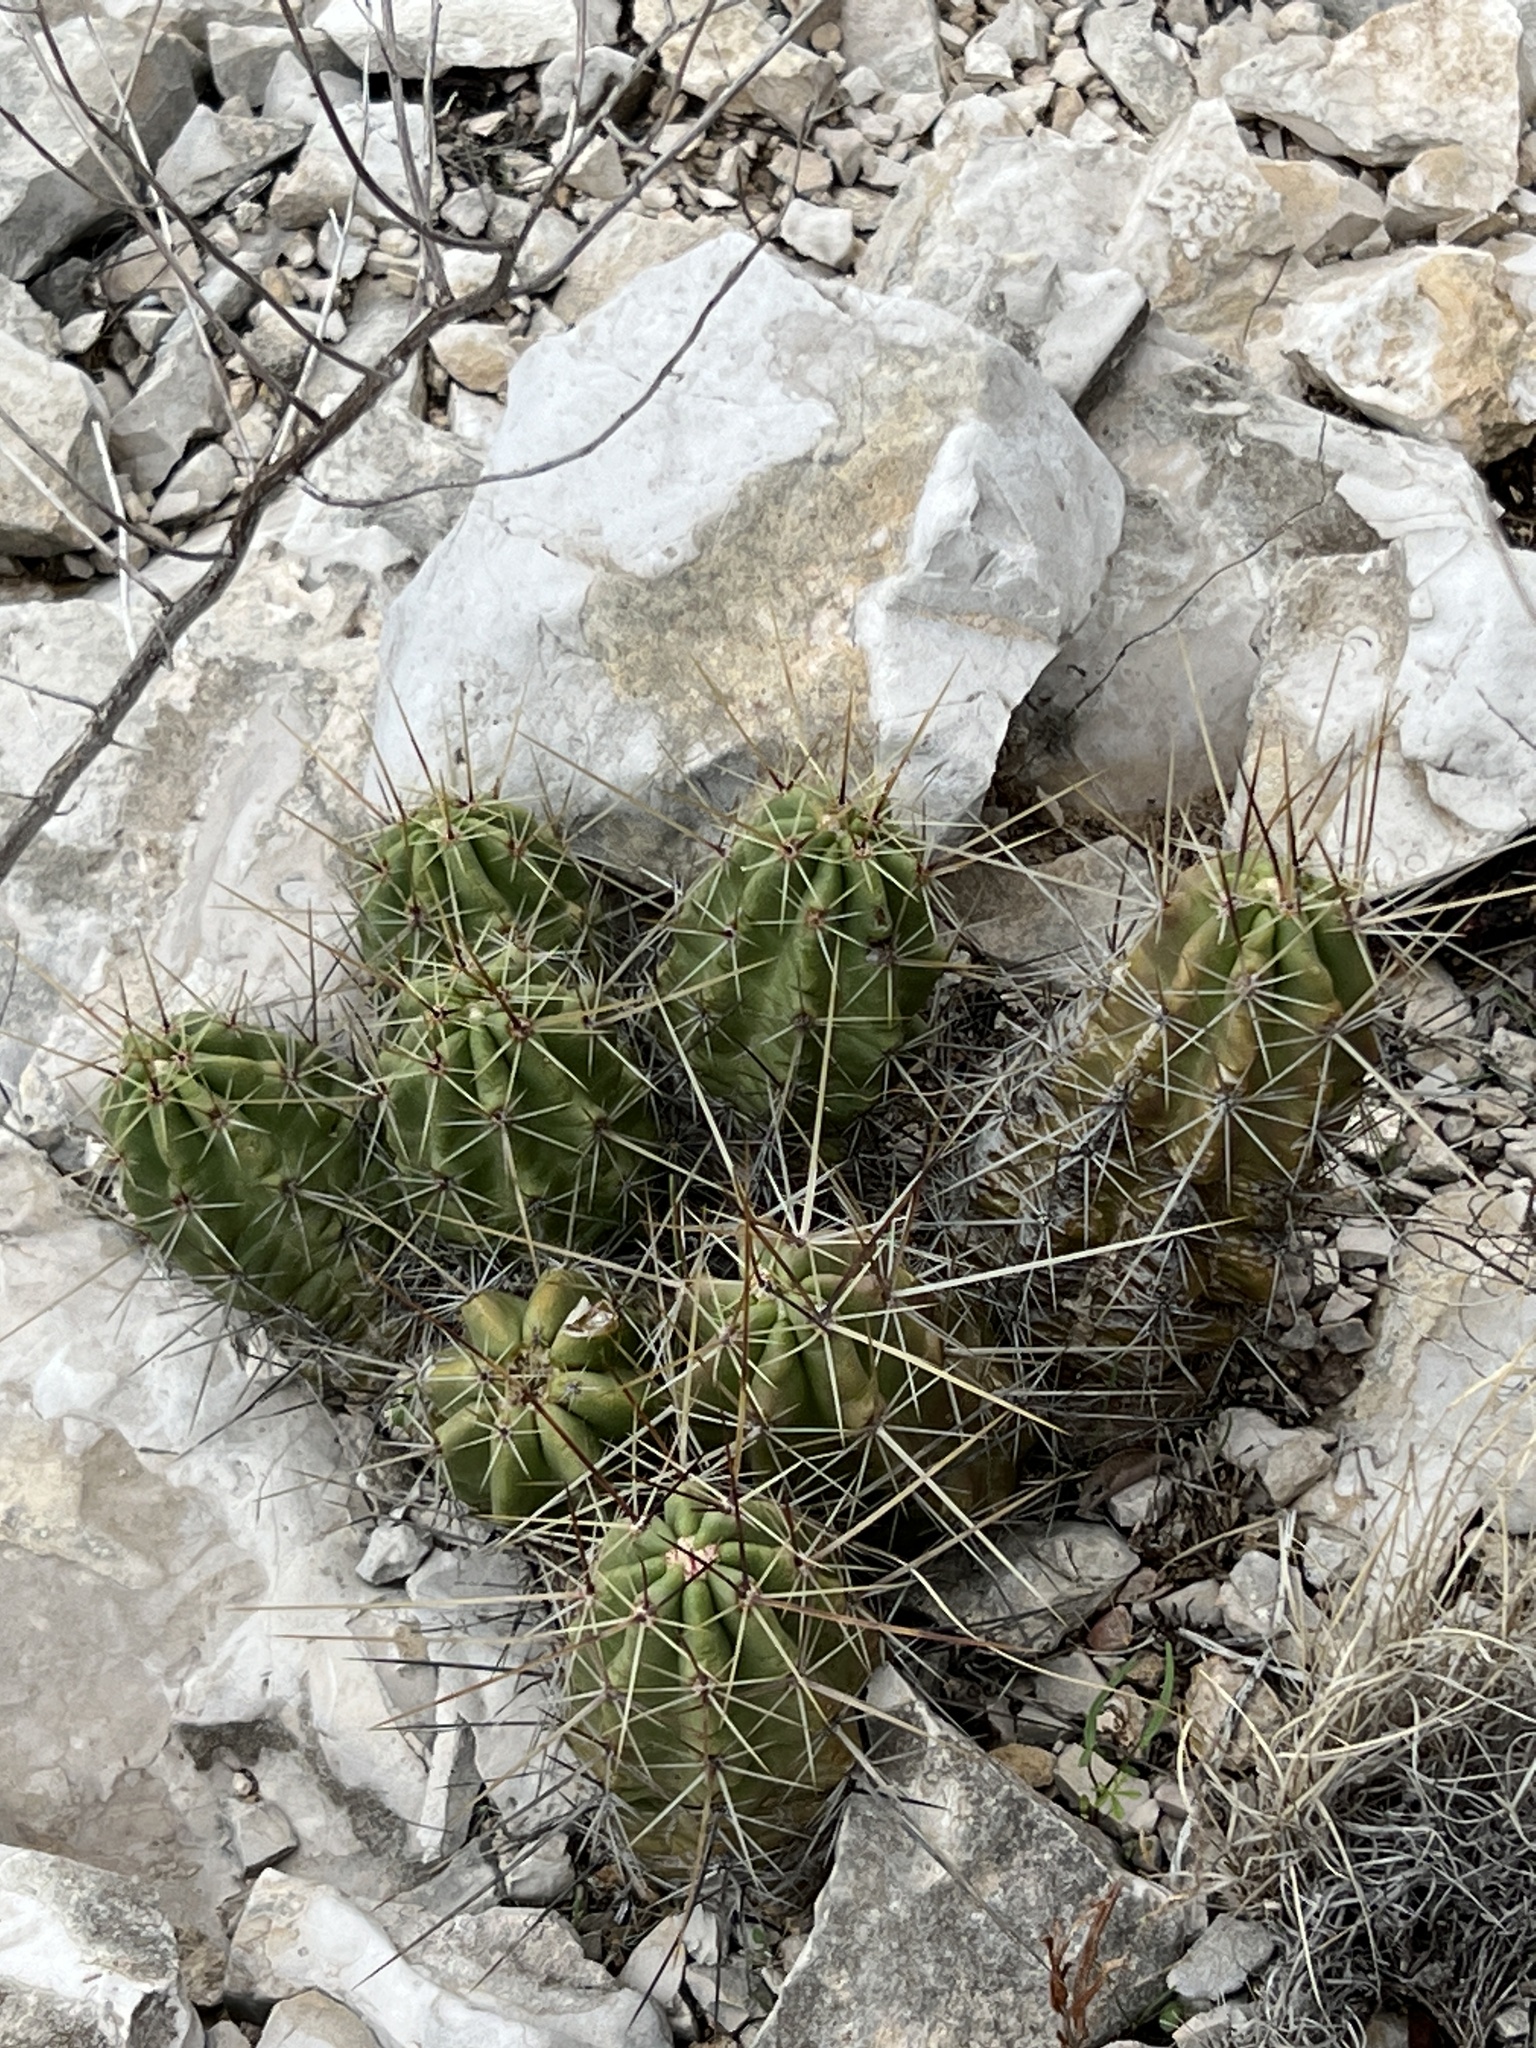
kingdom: Plantae
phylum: Tracheophyta
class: Magnoliopsida
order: Caryophyllales
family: Cactaceae
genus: Echinocereus
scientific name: Echinocereus enneacanthus
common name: Pitaya
